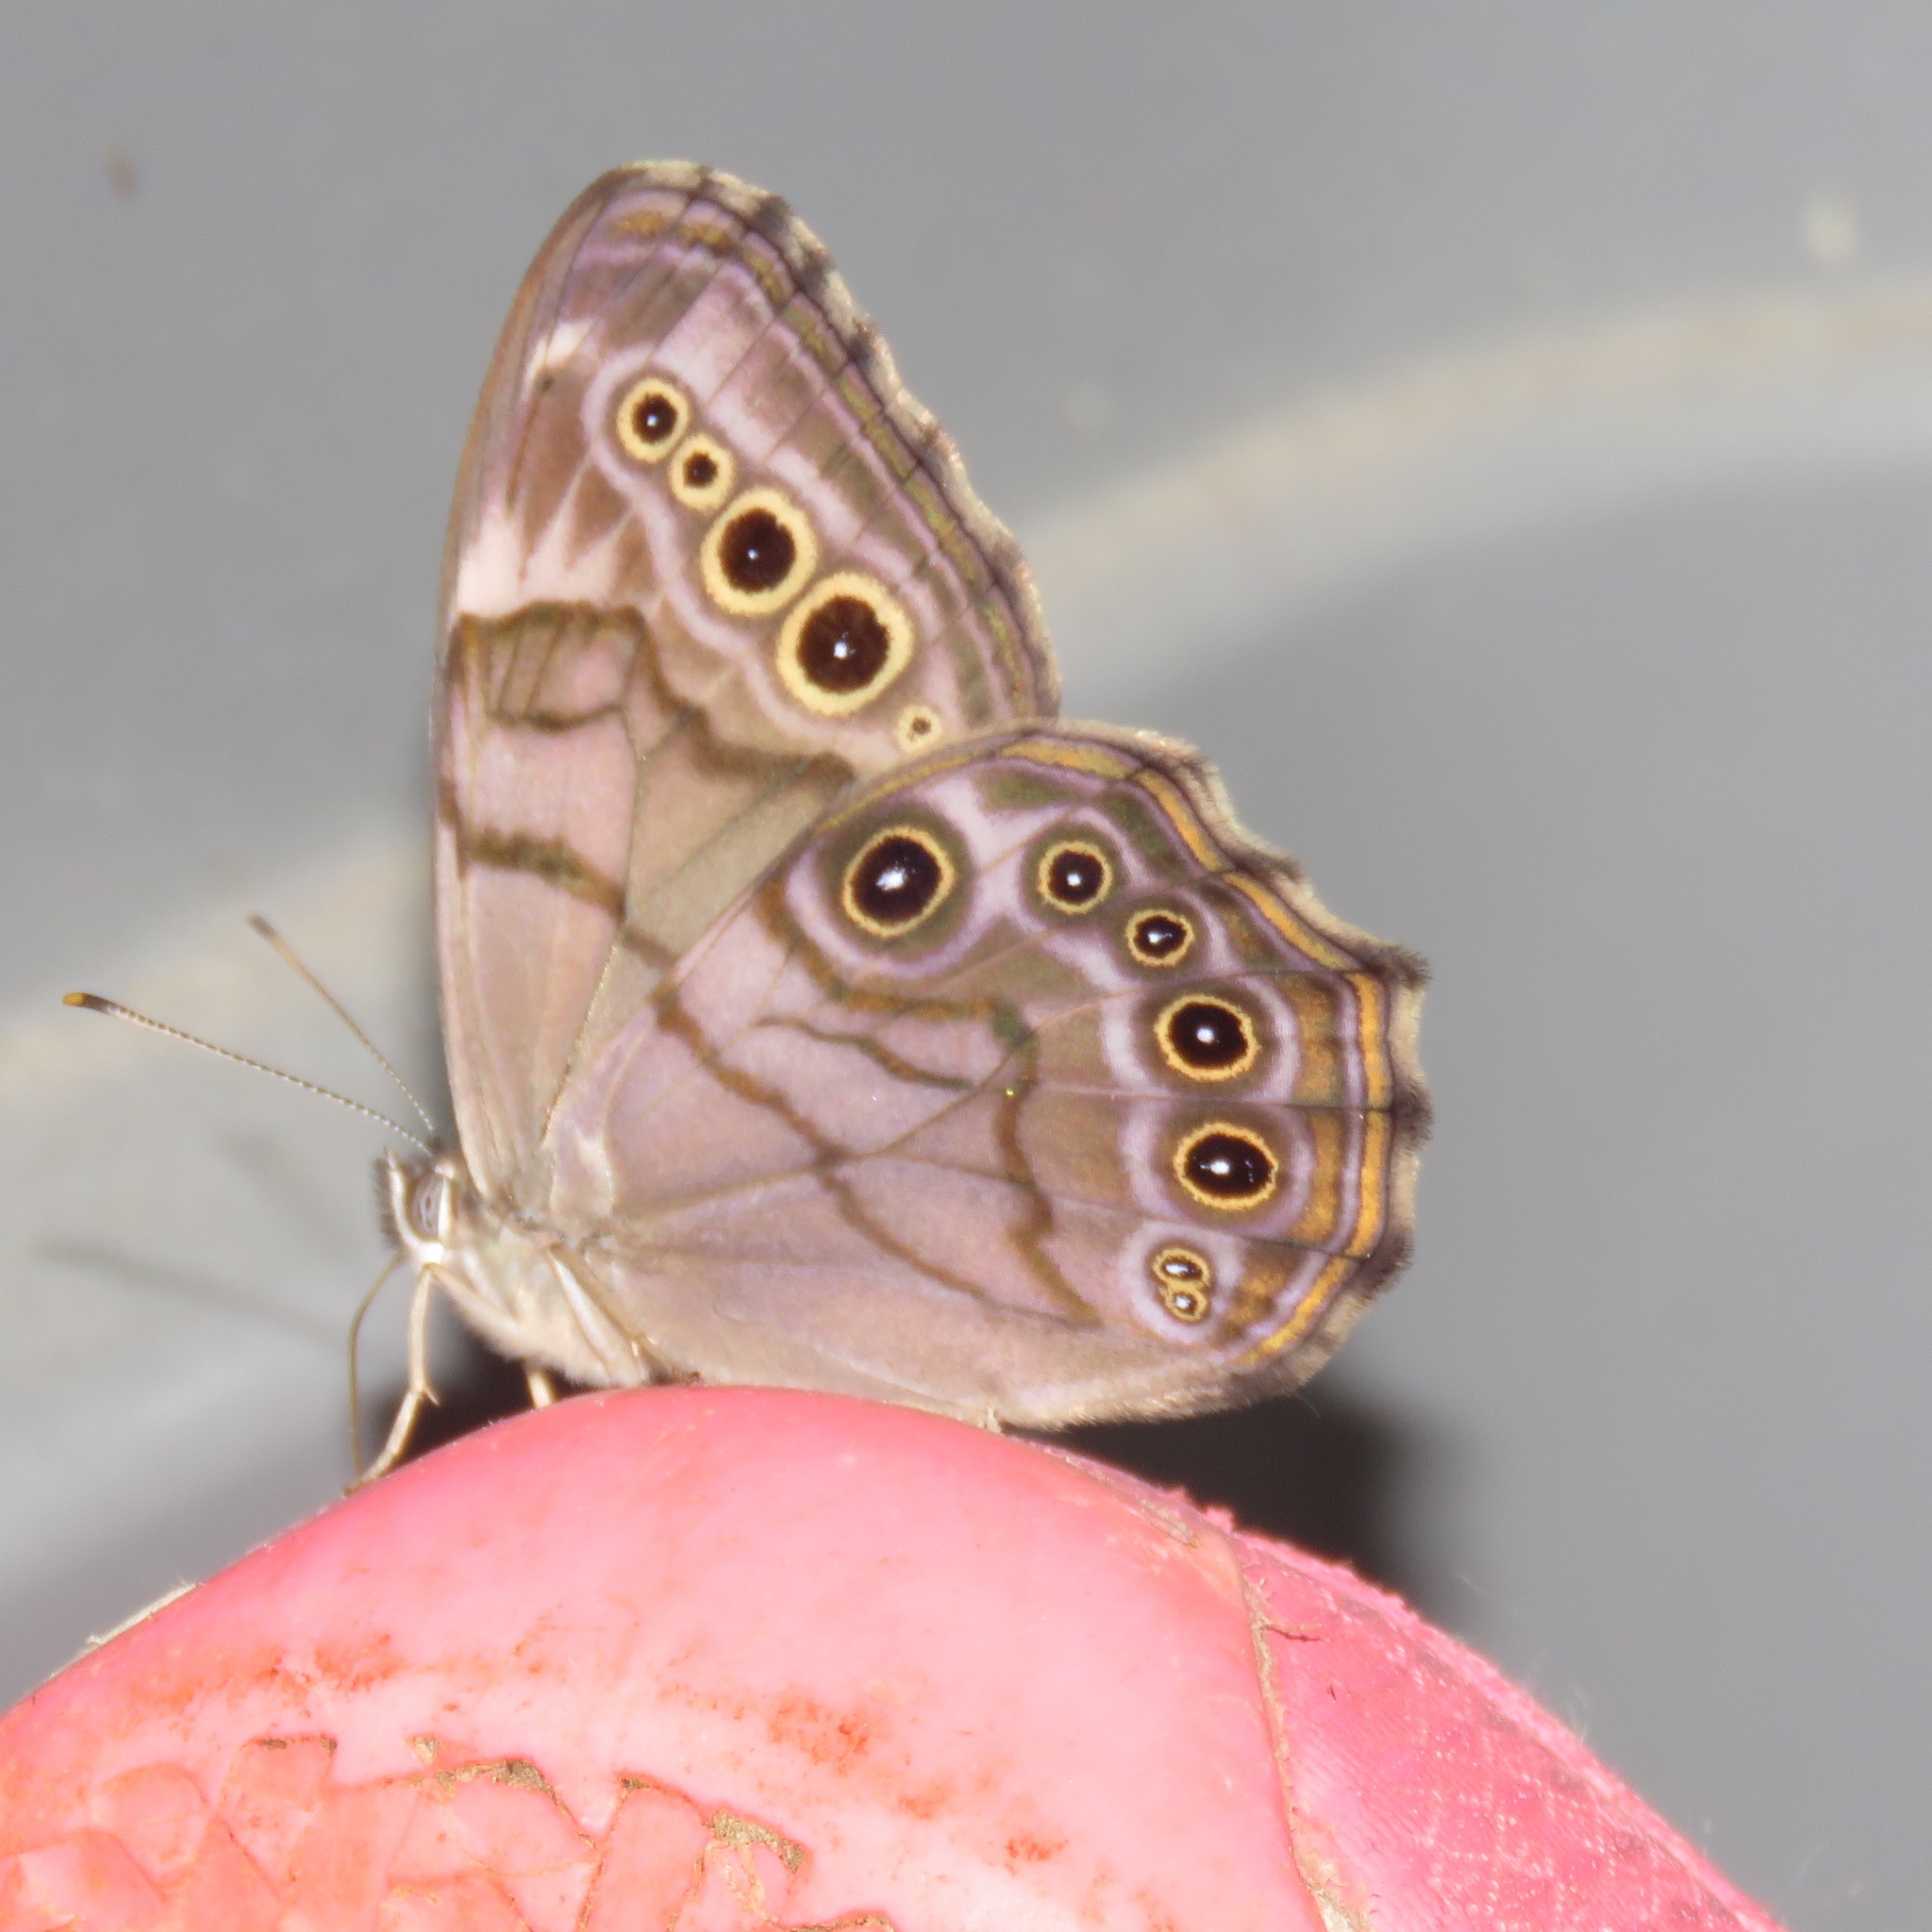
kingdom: Animalia
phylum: Arthropoda
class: Insecta
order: Lepidoptera
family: Nymphalidae
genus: Lethe
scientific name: Lethe anthedon
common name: Northern pearly-eye
